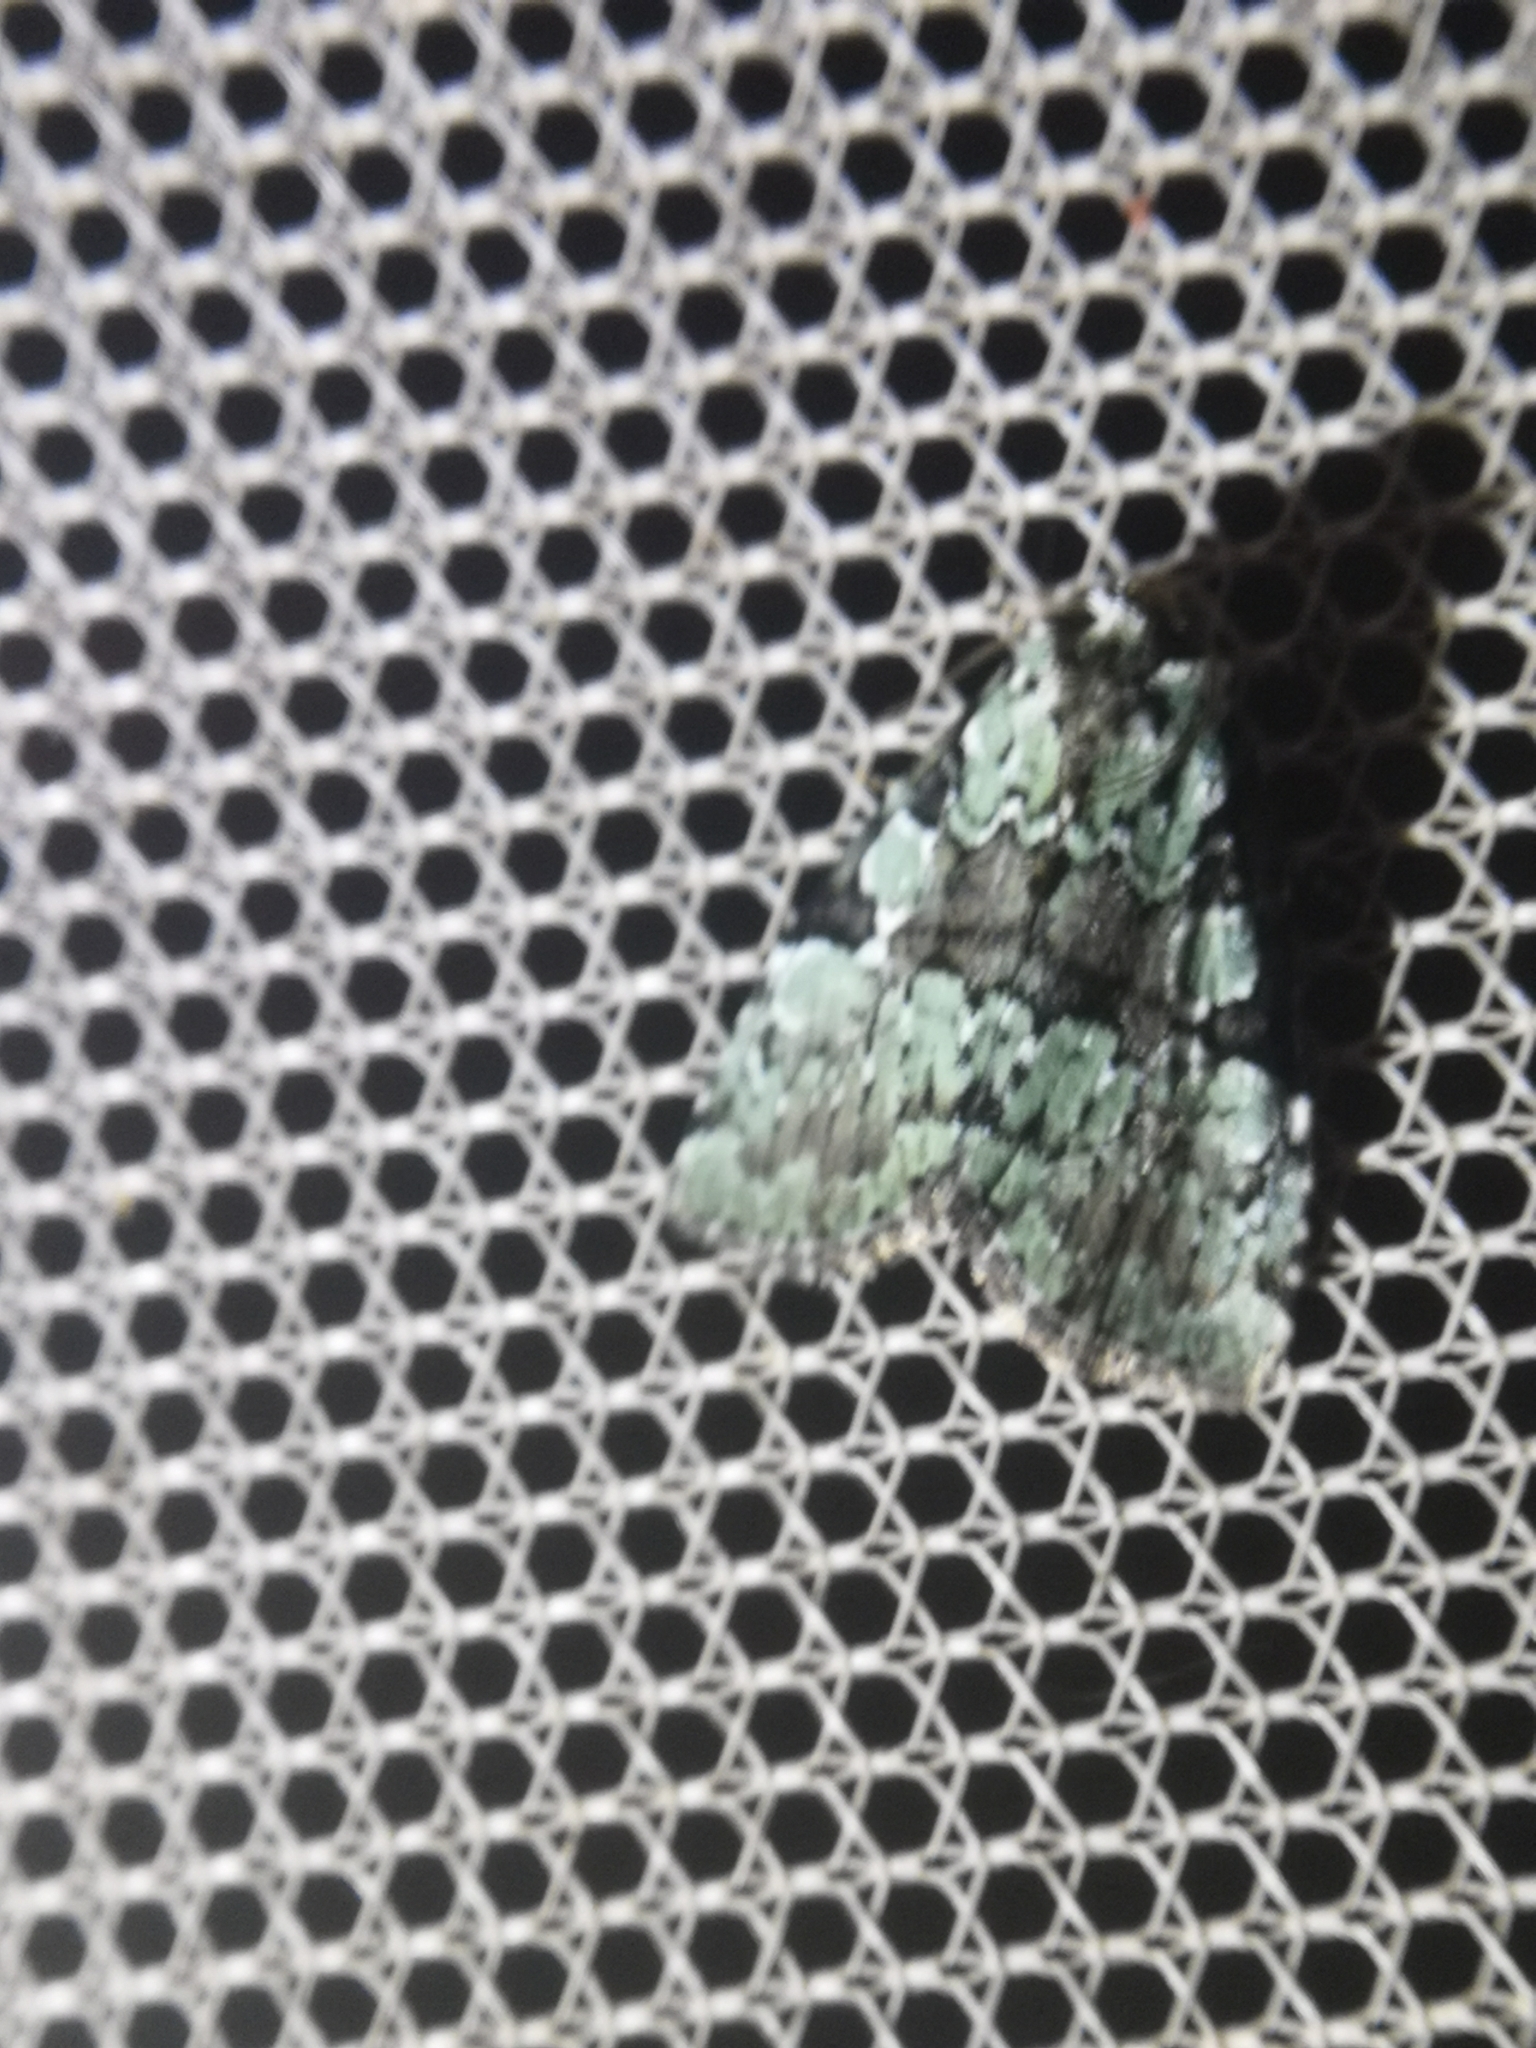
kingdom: Animalia
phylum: Arthropoda
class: Insecta
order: Lepidoptera
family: Noctuidae
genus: Leuconycta
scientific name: Leuconycta lepidula
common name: Marbled-green leuconycta moth
